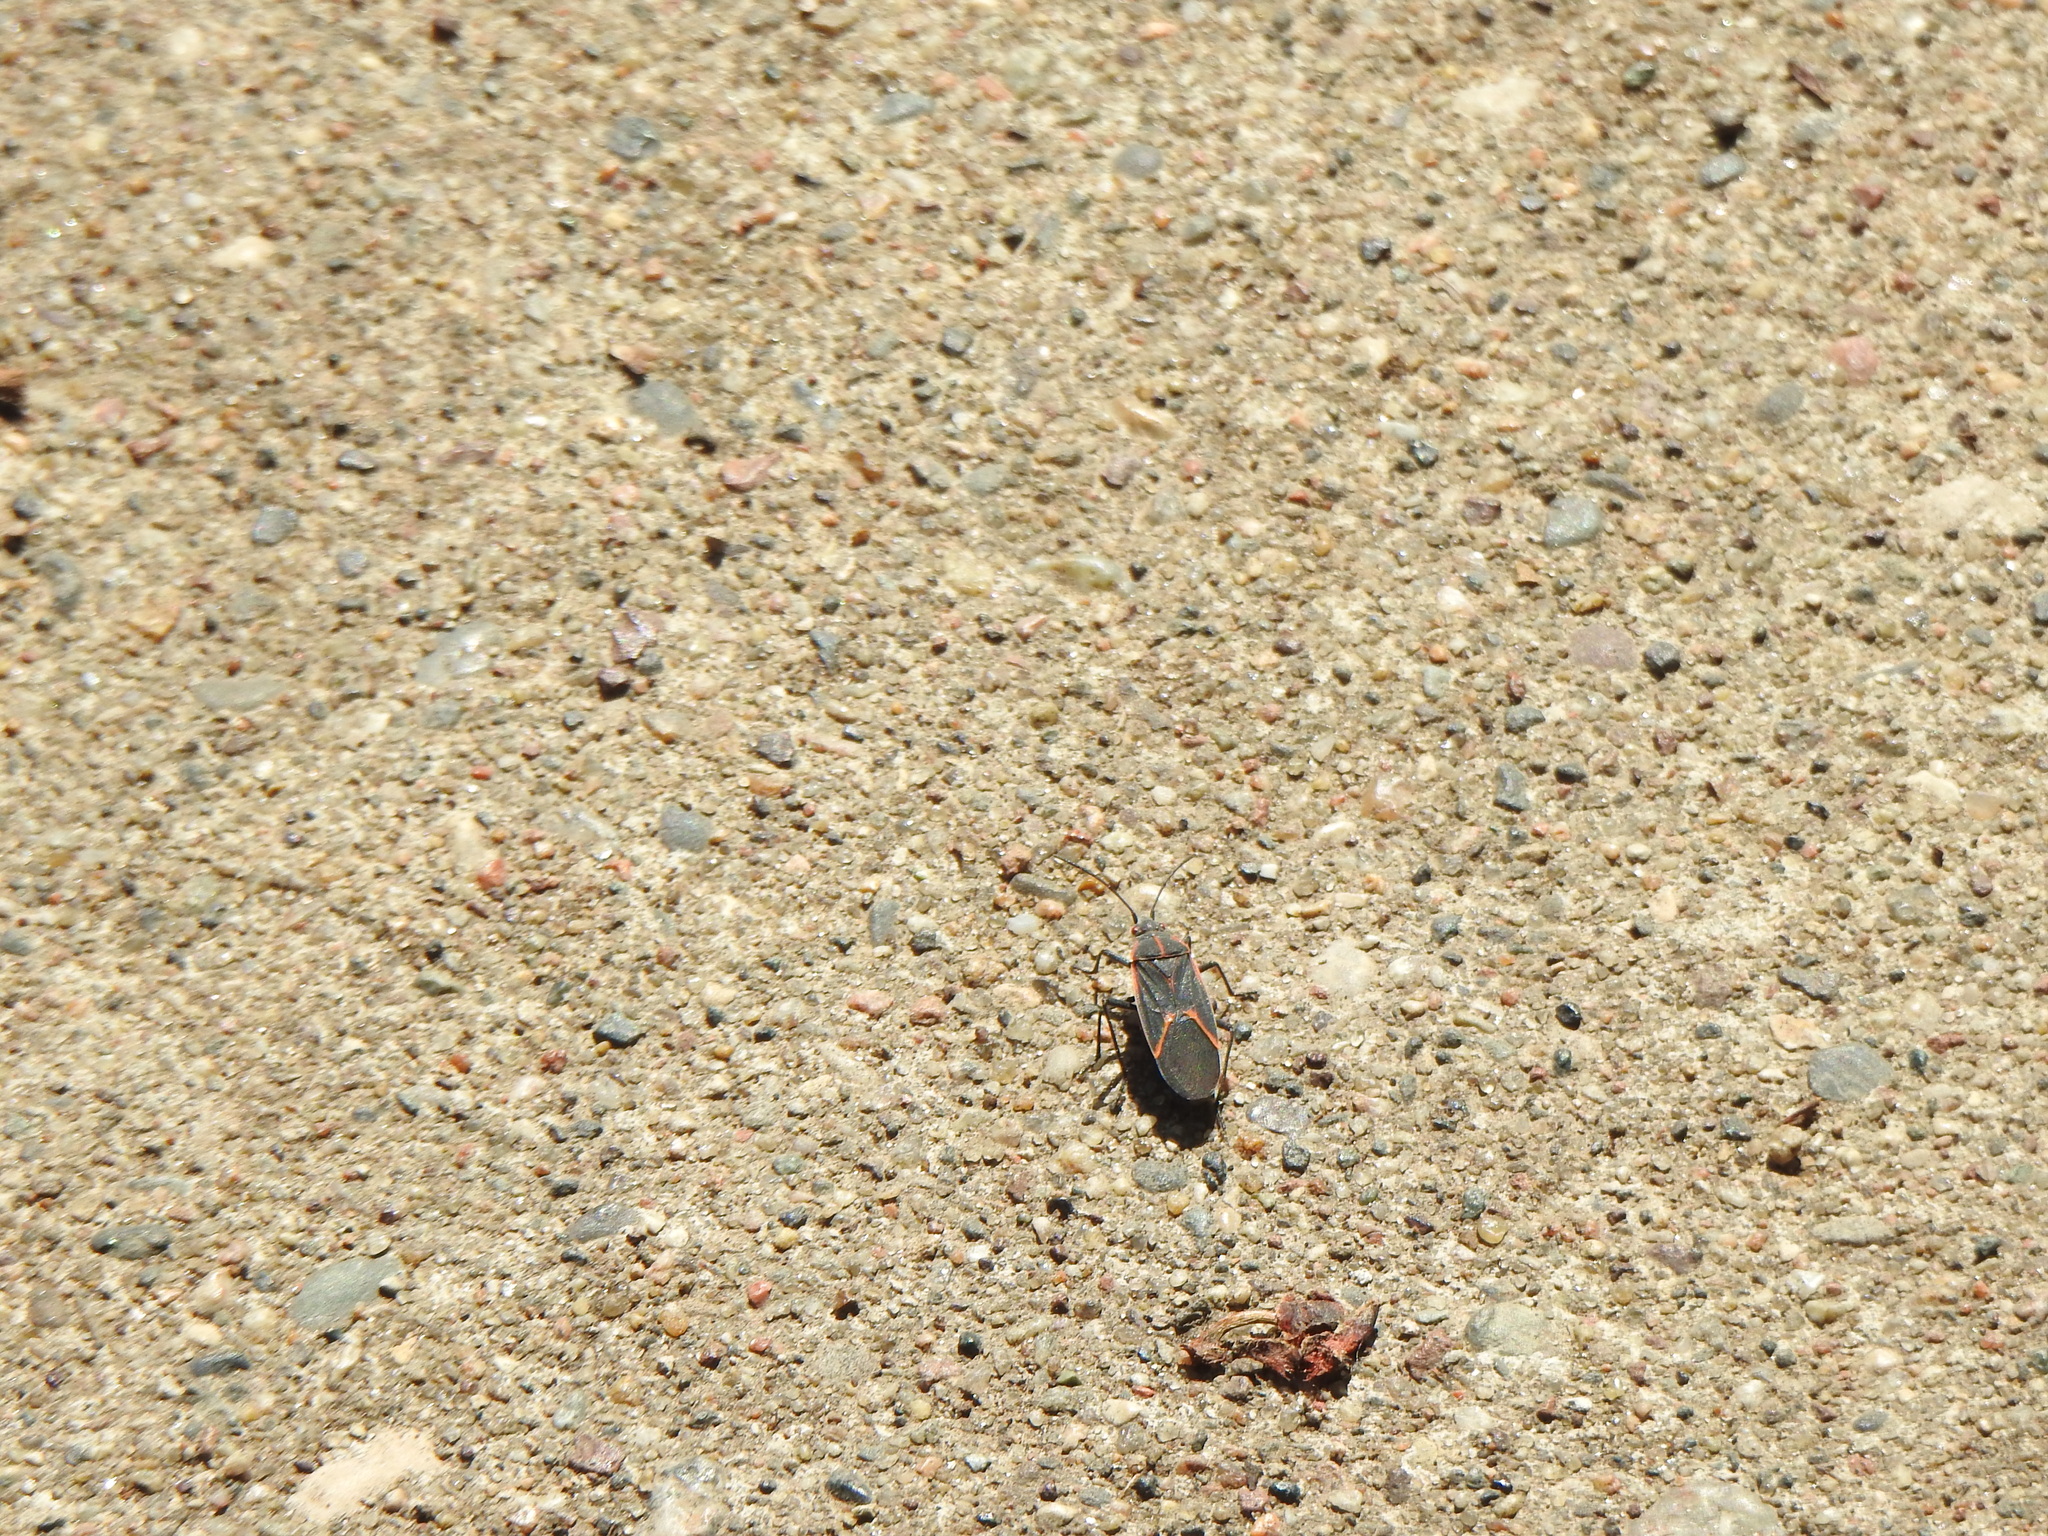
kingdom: Animalia
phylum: Arthropoda
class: Insecta
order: Hemiptera
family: Rhopalidae
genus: Boisea
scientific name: Boisea trivittata
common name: Boxelder bug
